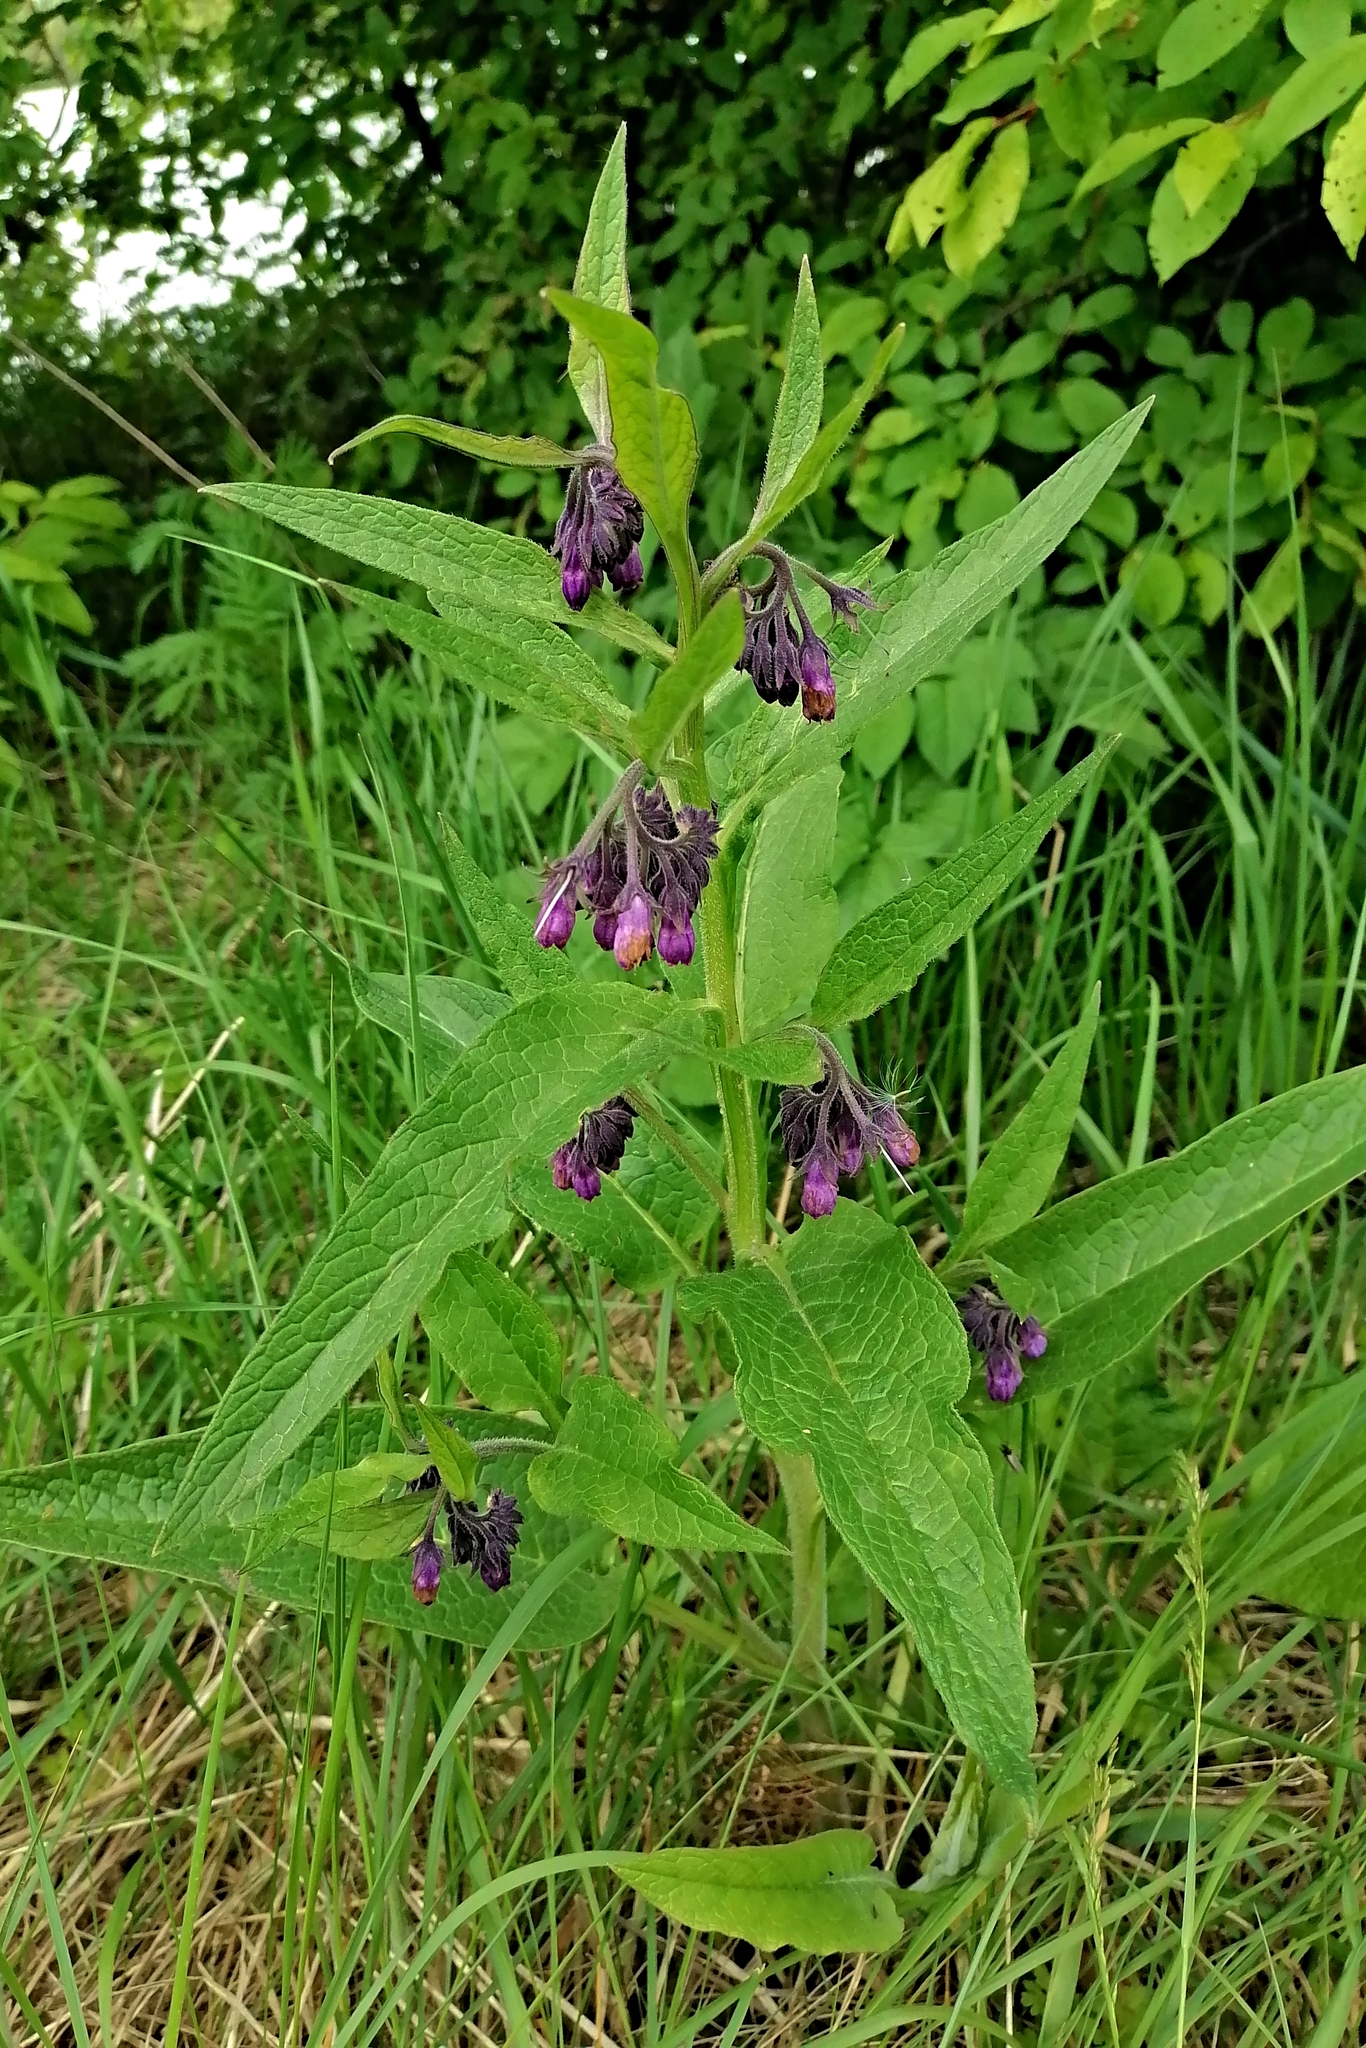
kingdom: Plantae
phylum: Tracheophyta
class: Magnoliopsida
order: Boraginales
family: Boraginaceae
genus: Symphytum
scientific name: Symphytum officinale
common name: Common comfrey
